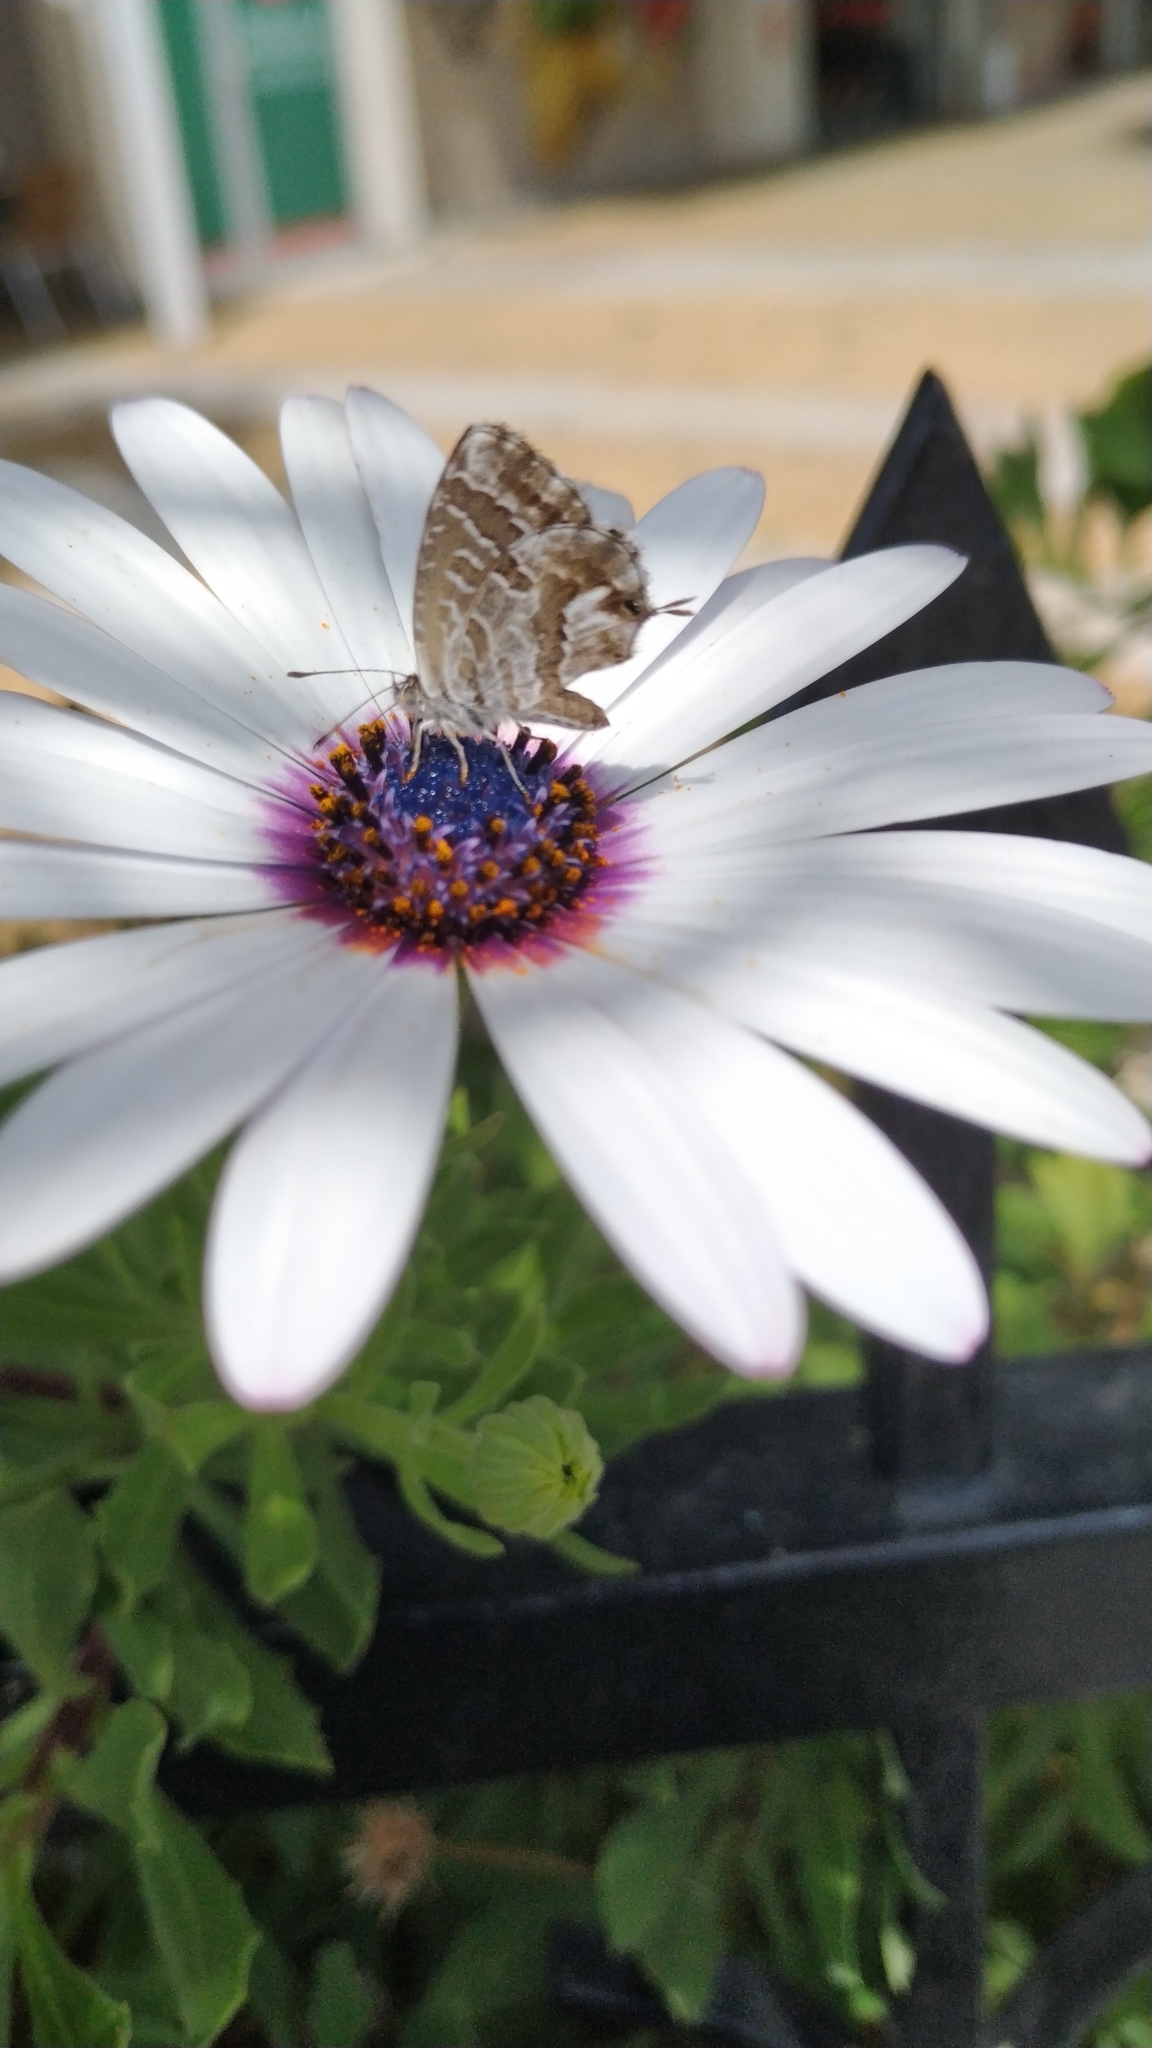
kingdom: Animalia
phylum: Arthropoda
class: Insecta
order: Lepidoptera
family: Lycaenidae
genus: Cacyreus
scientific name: Cacyreus marshalli
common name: Geranium bronze
